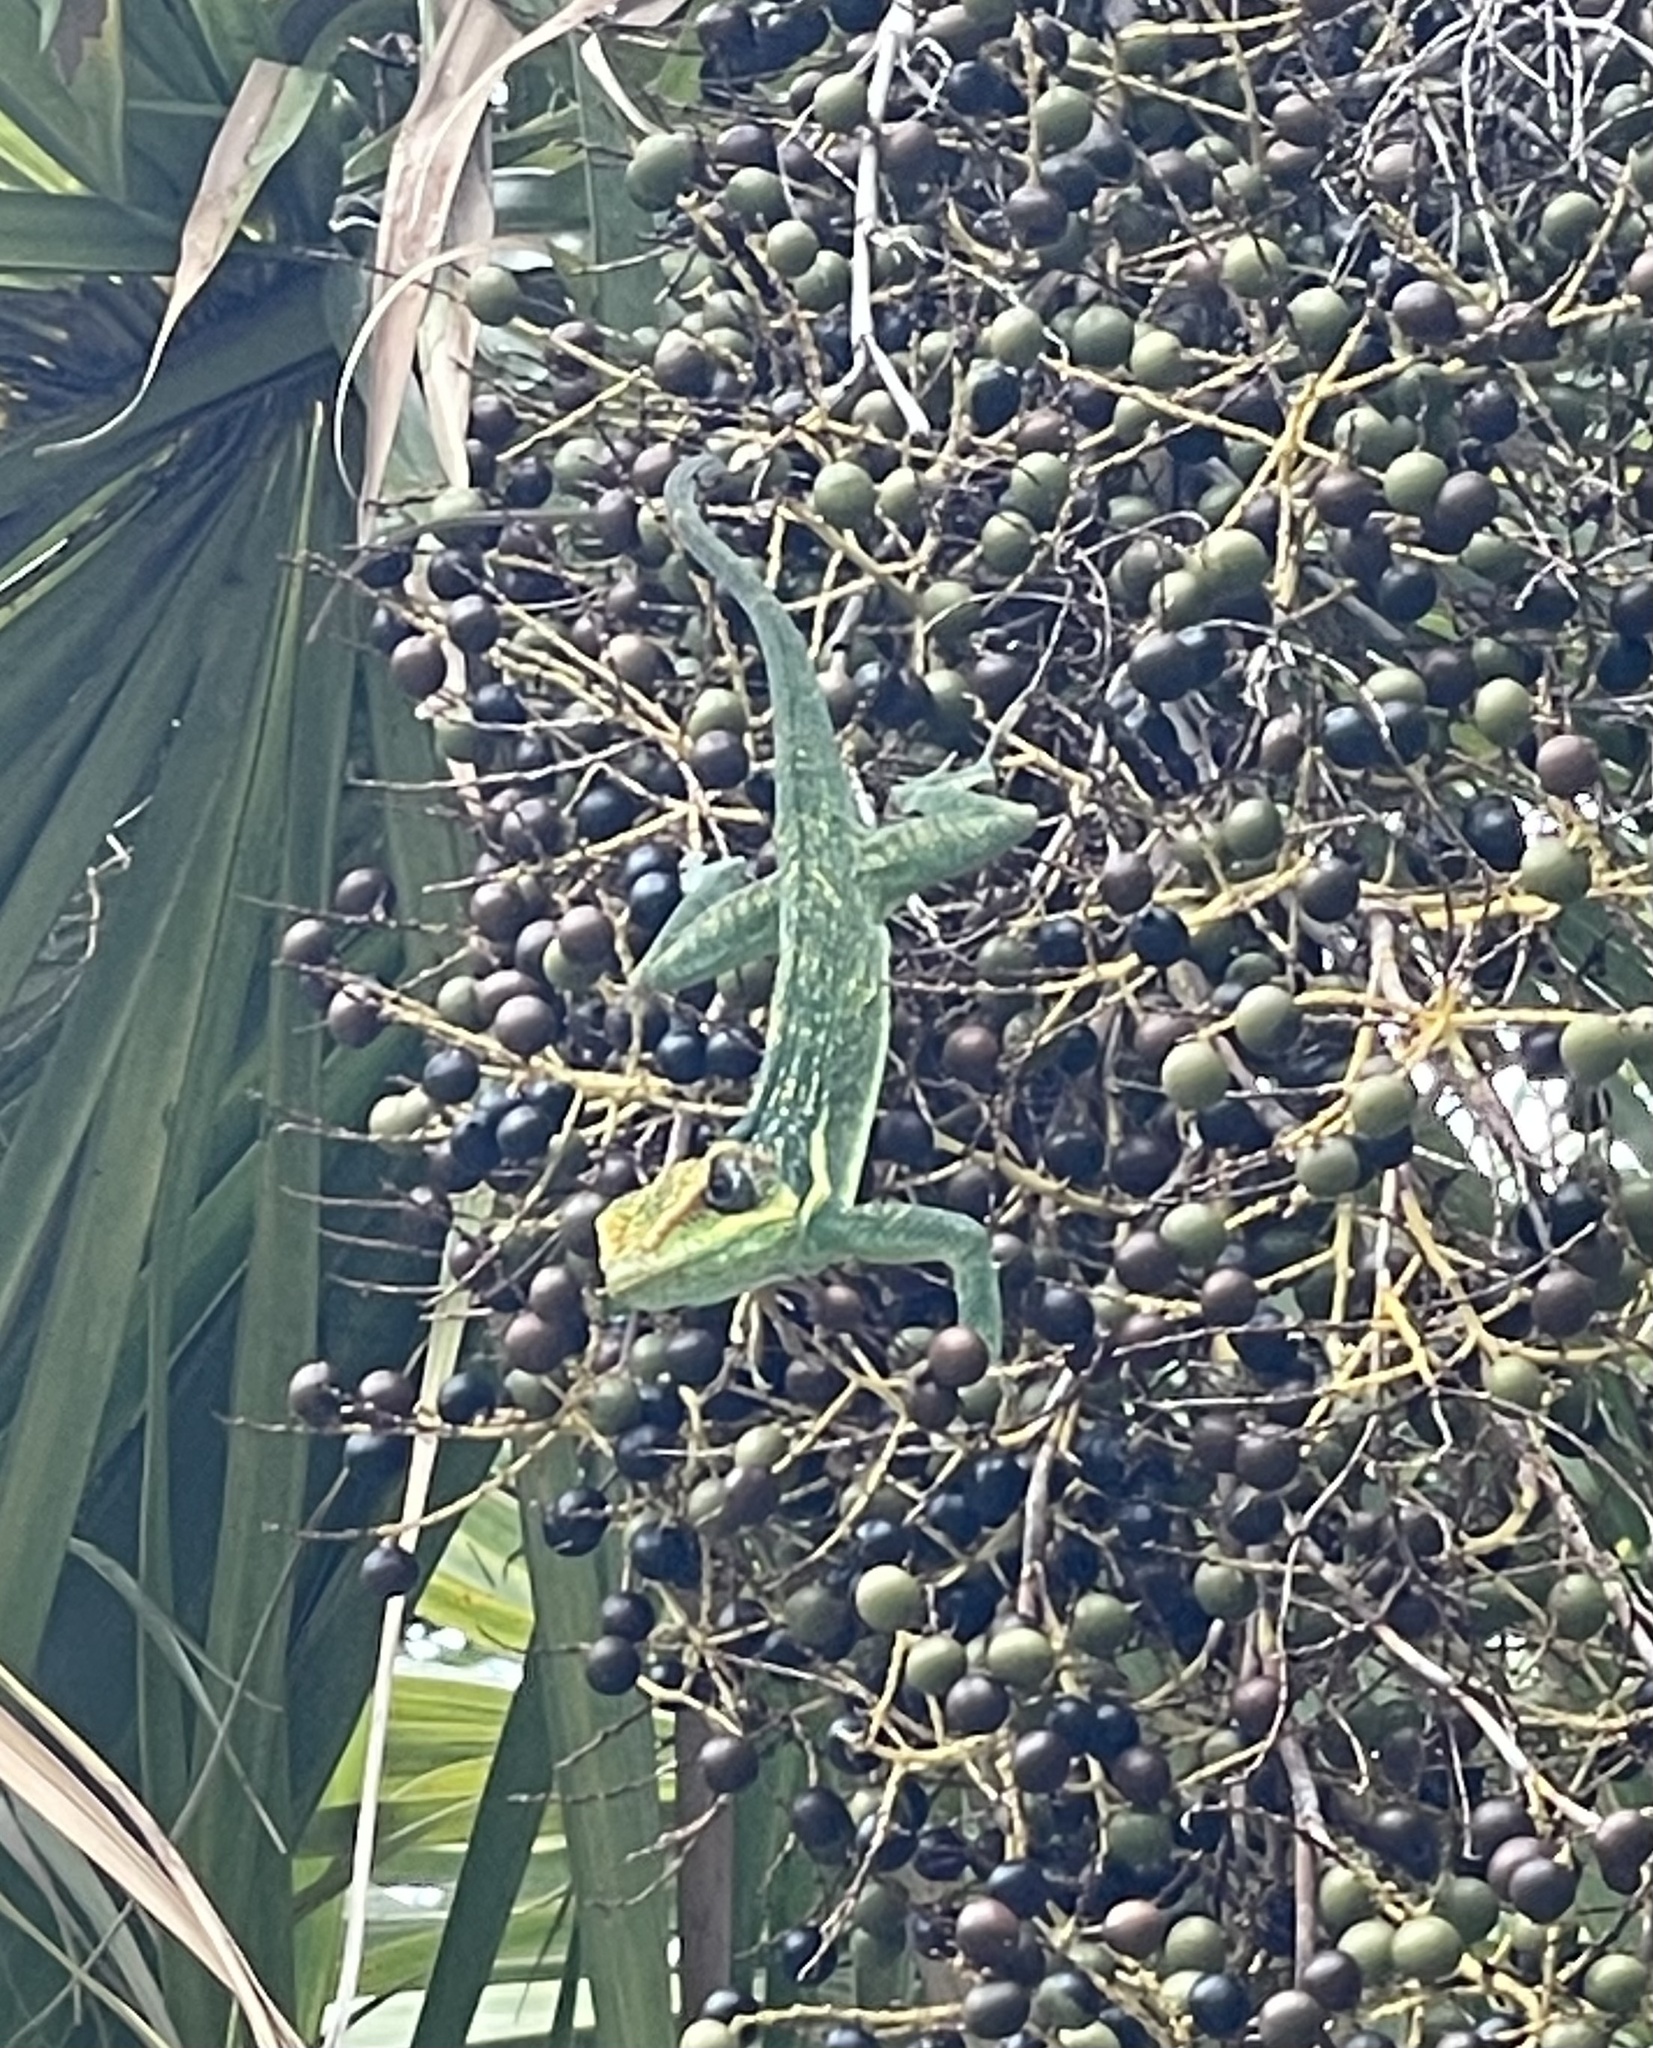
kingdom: Animalia
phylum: Chordata
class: Squamata
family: Dactyloidae
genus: Anolis
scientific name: Anolis equestris
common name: Knight anole
